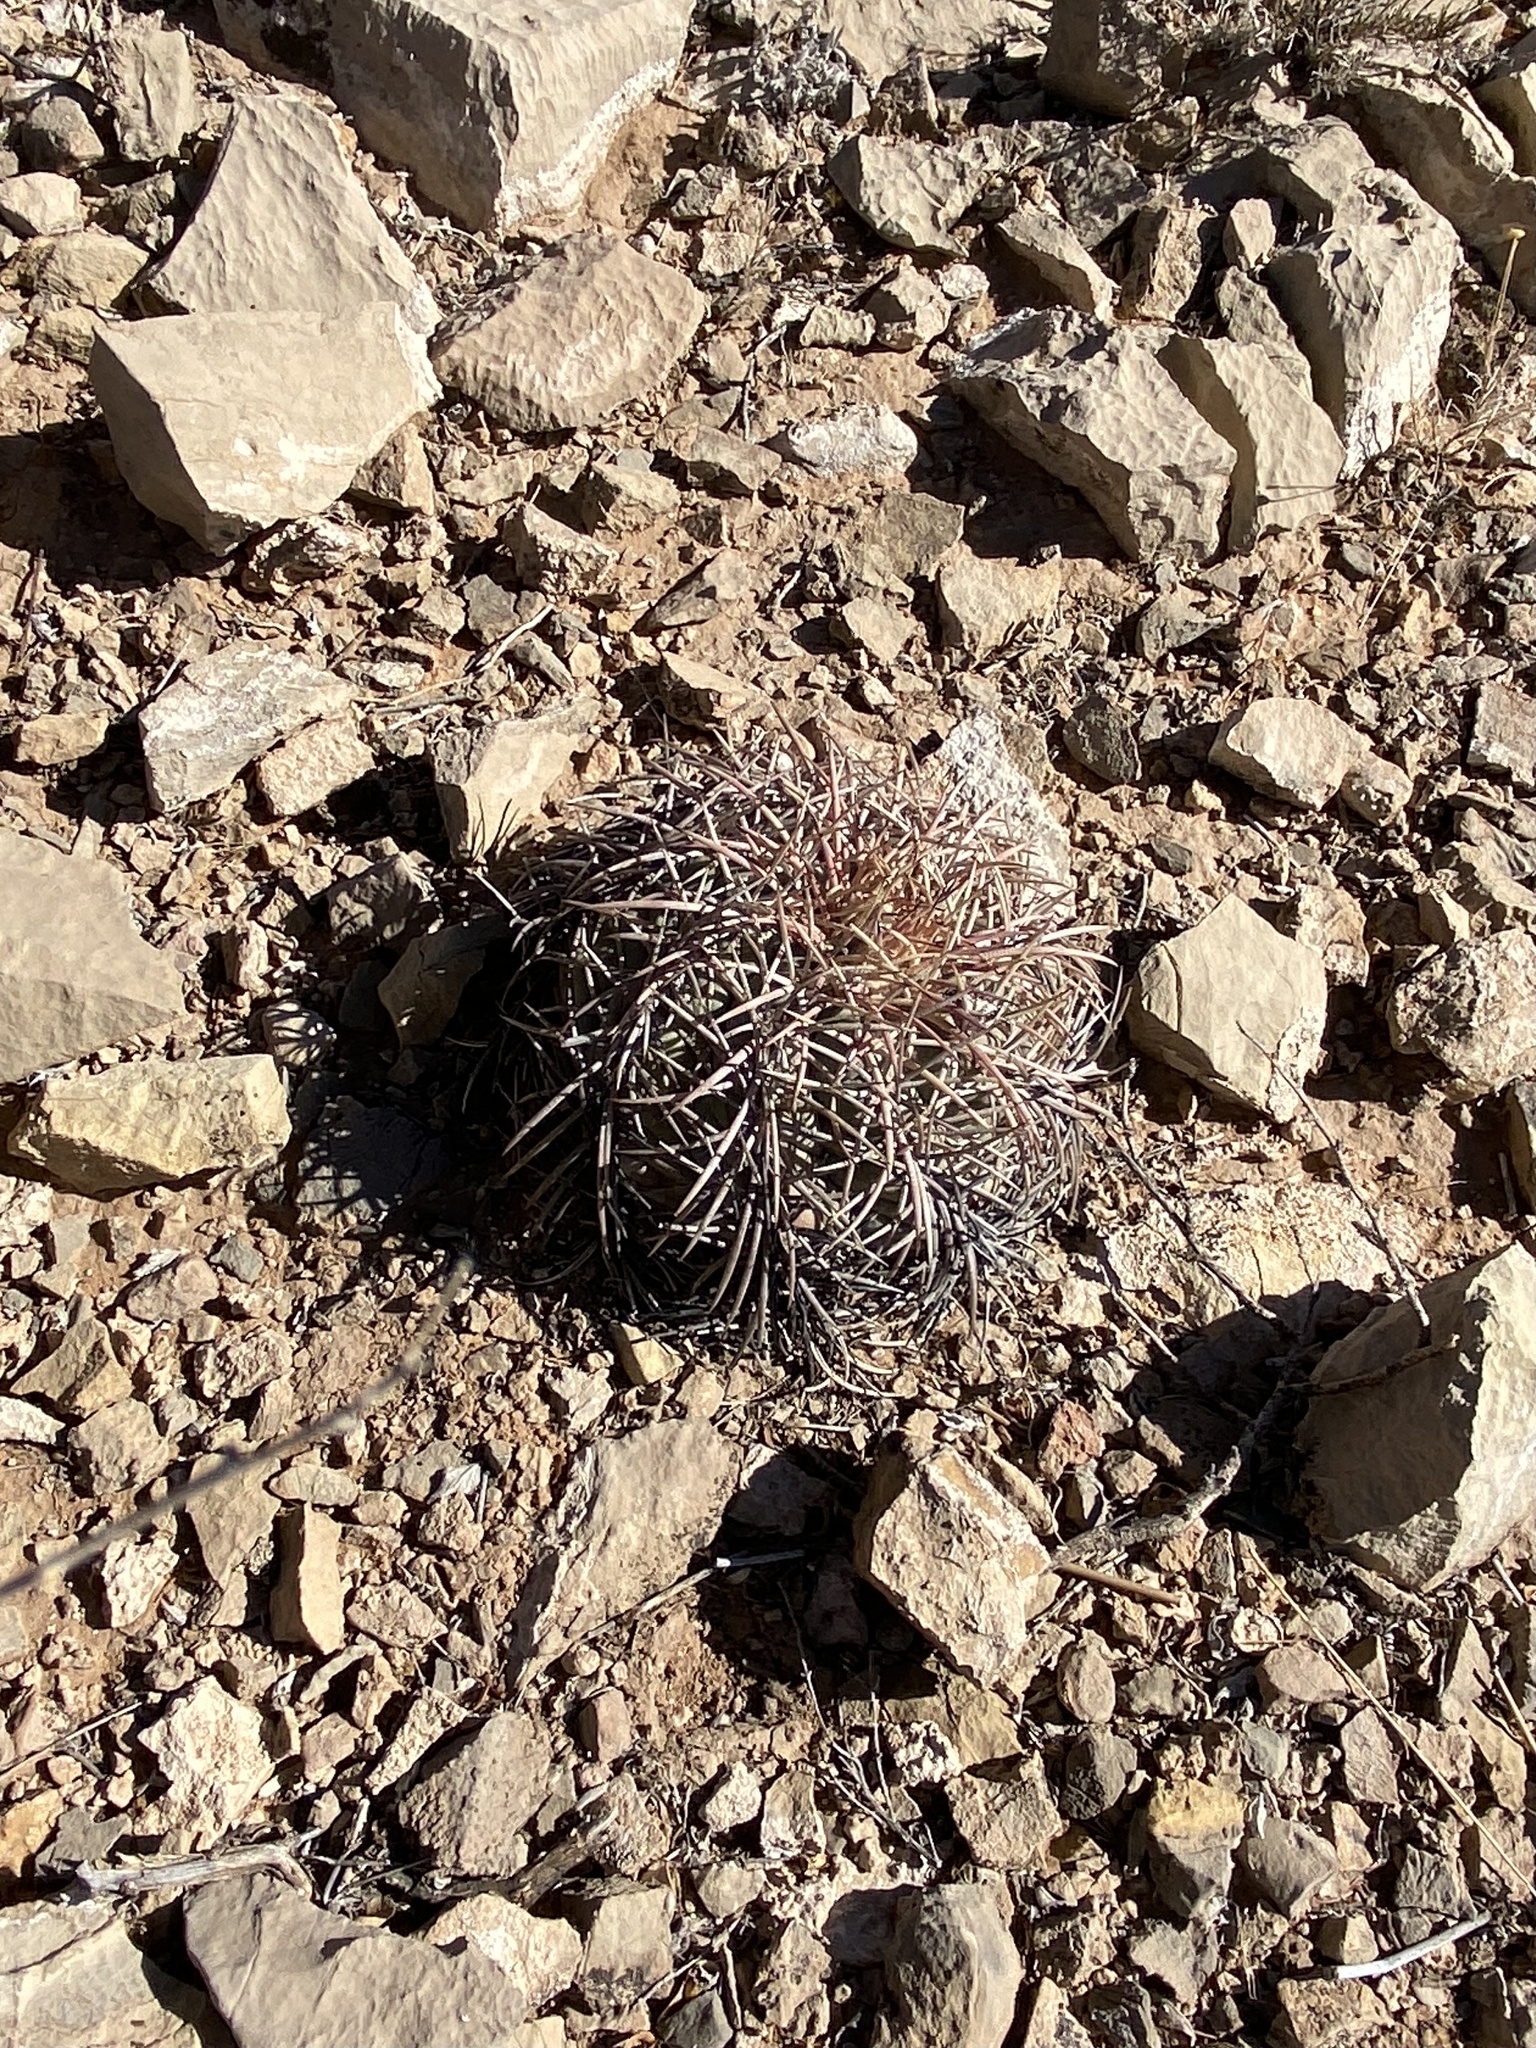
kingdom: Plantae
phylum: Tracheophyta
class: Magnoliopsida
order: Caryophyllales
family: Cactaceae
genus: Echinocactus
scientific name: Echinocactus horizonthalonius
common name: Devilshead
